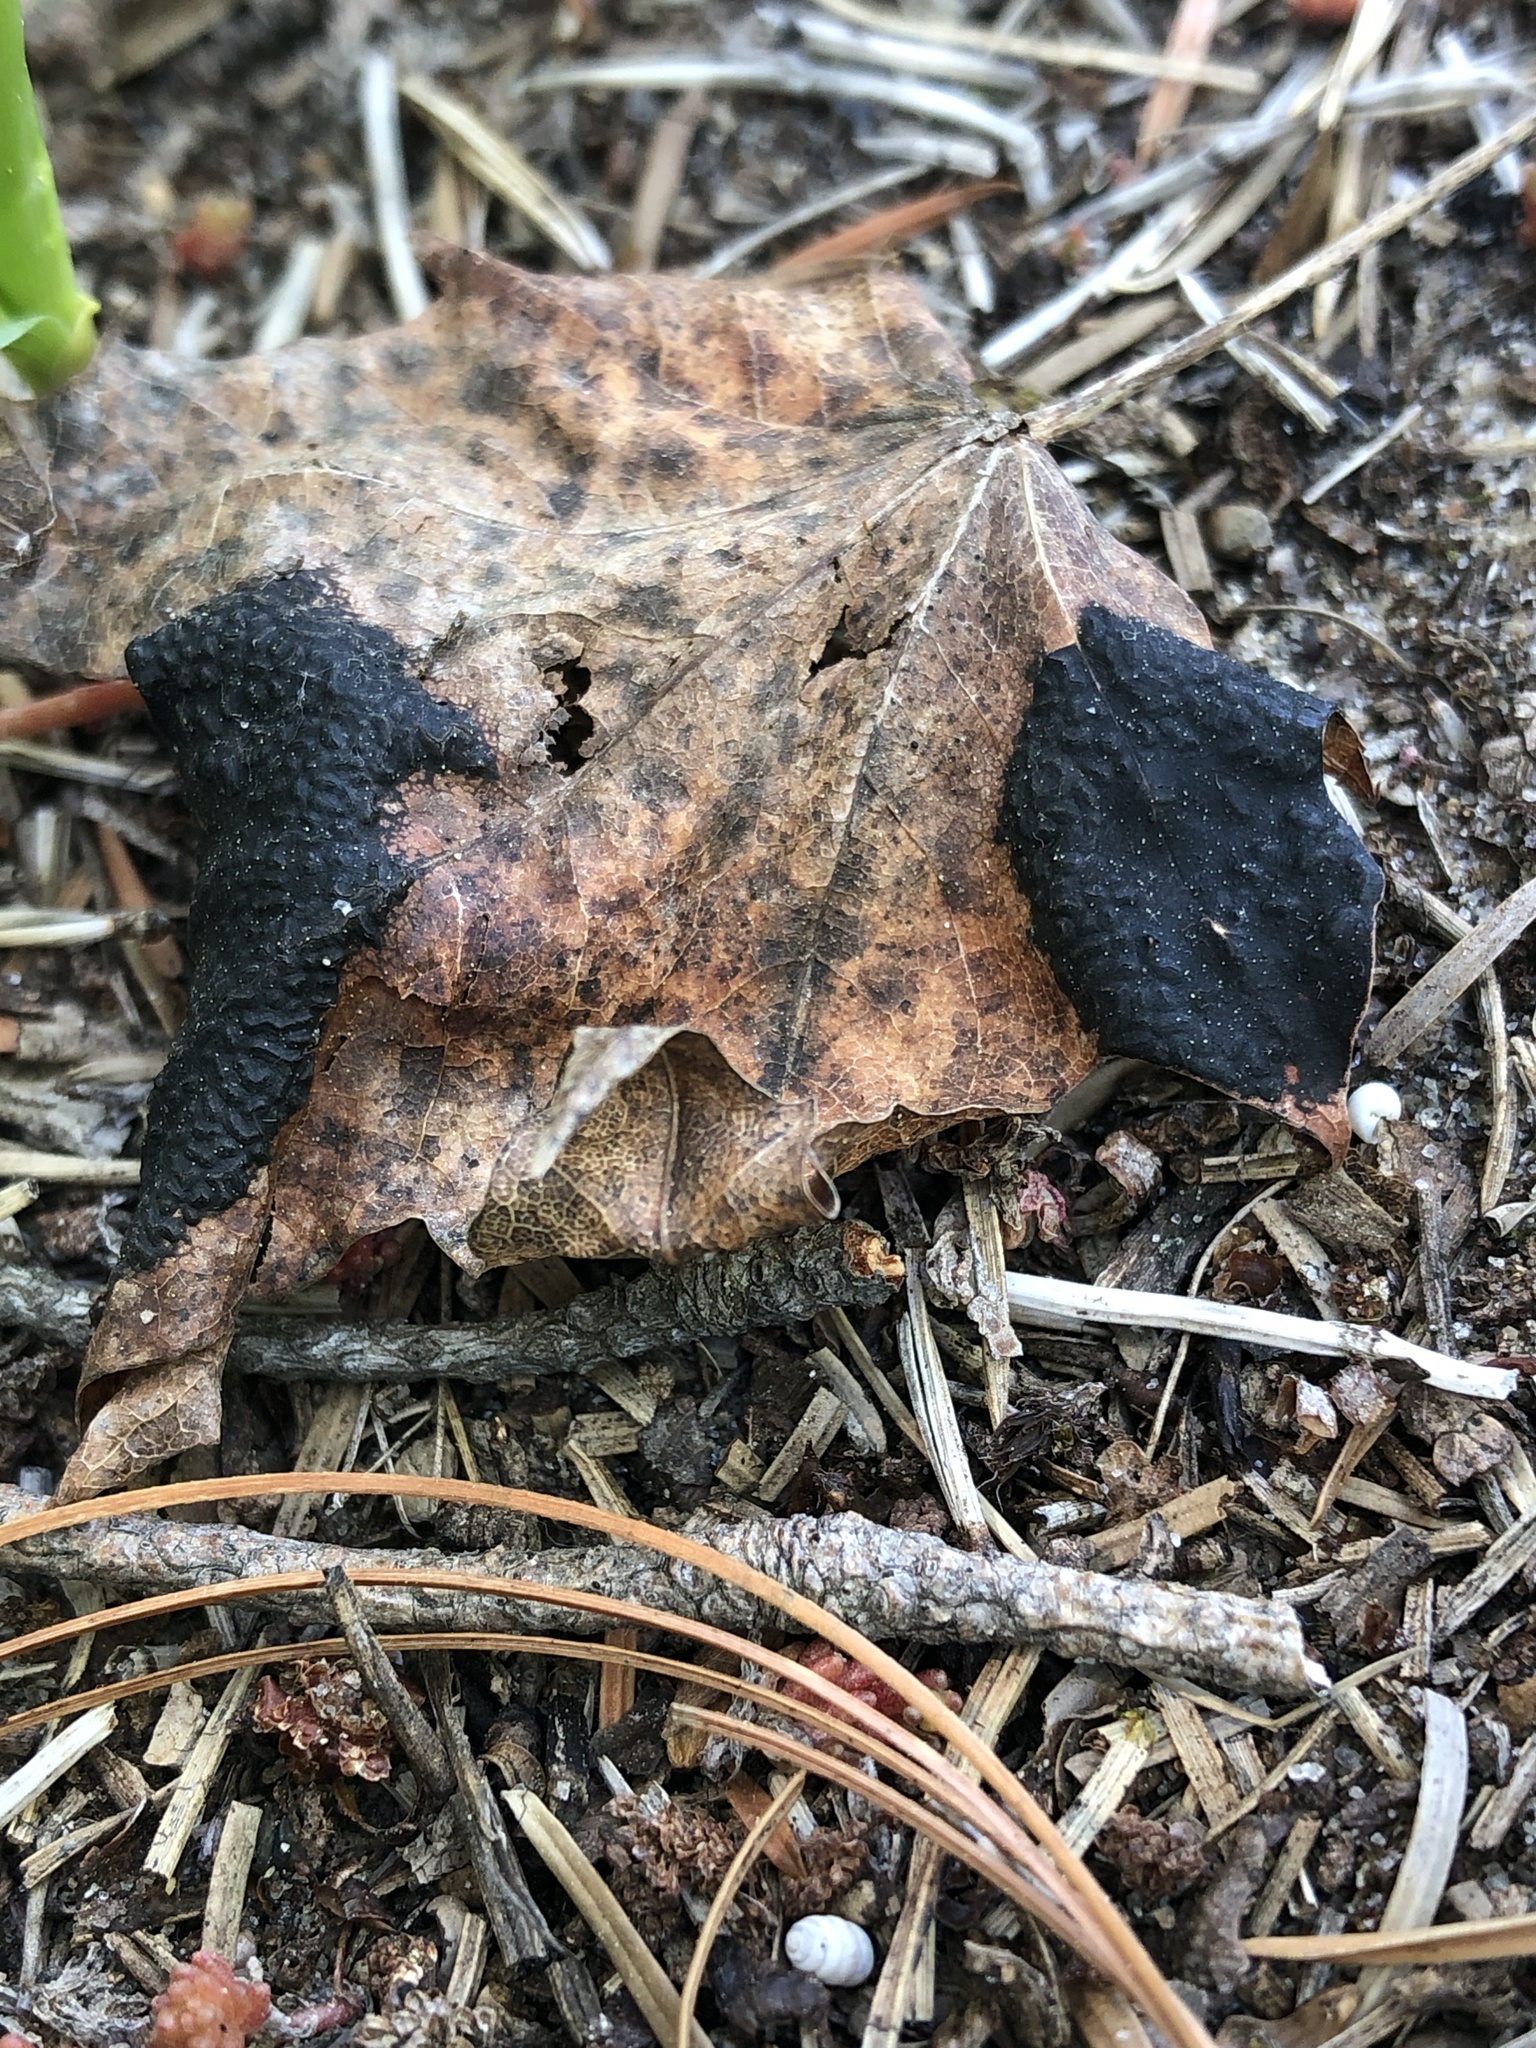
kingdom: Fungi
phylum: Ascomycota
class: Leotiomycetes
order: Rhytismatales
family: Rhytismataceae
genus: Rhytisma
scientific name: Rhytisma acerinum
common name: European tar spot
